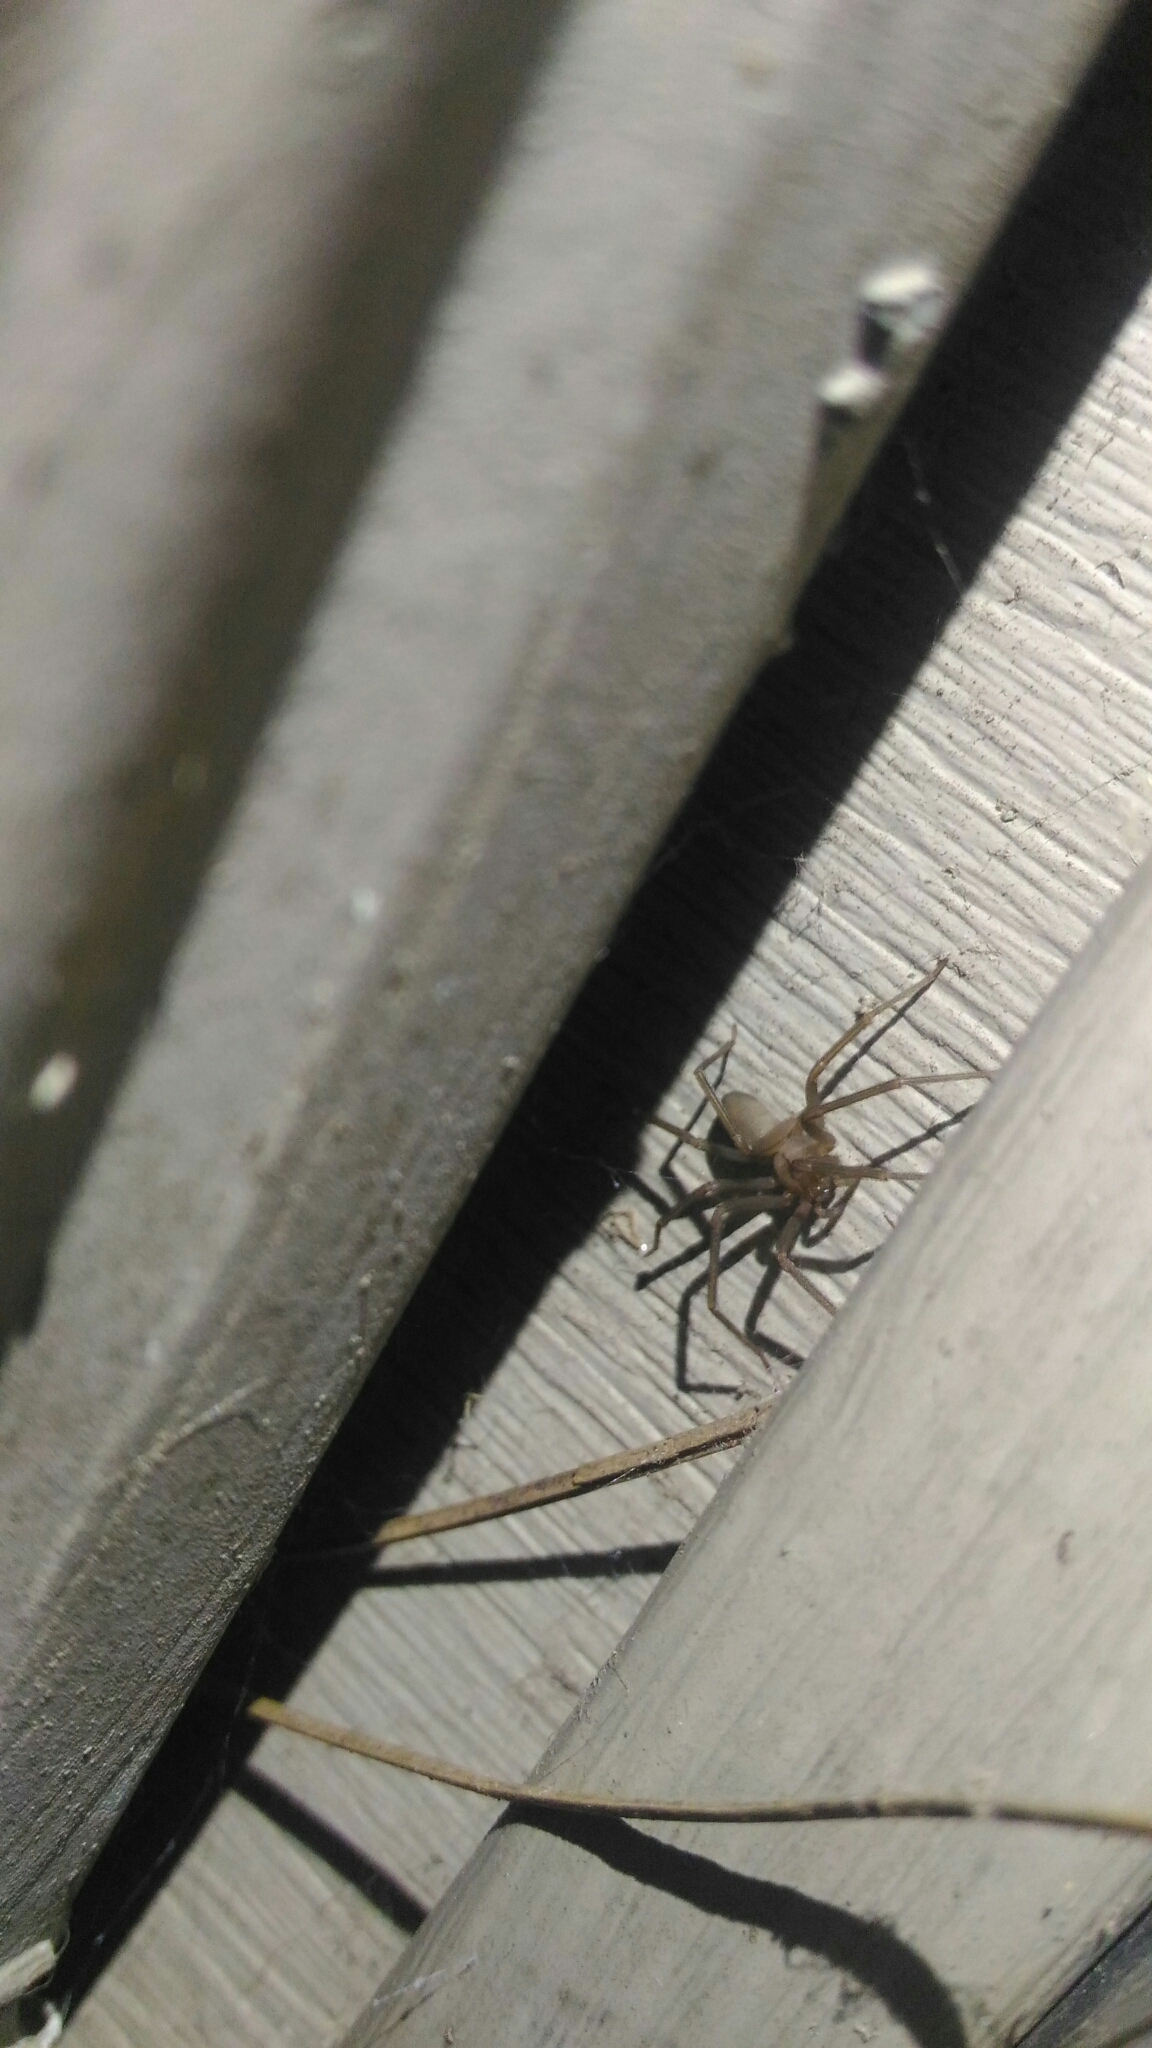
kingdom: Animalia
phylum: Arthropoda
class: Arachnida
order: Araneae
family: Sicariidae
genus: Loxosceles
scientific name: Loxosceles reclusa
